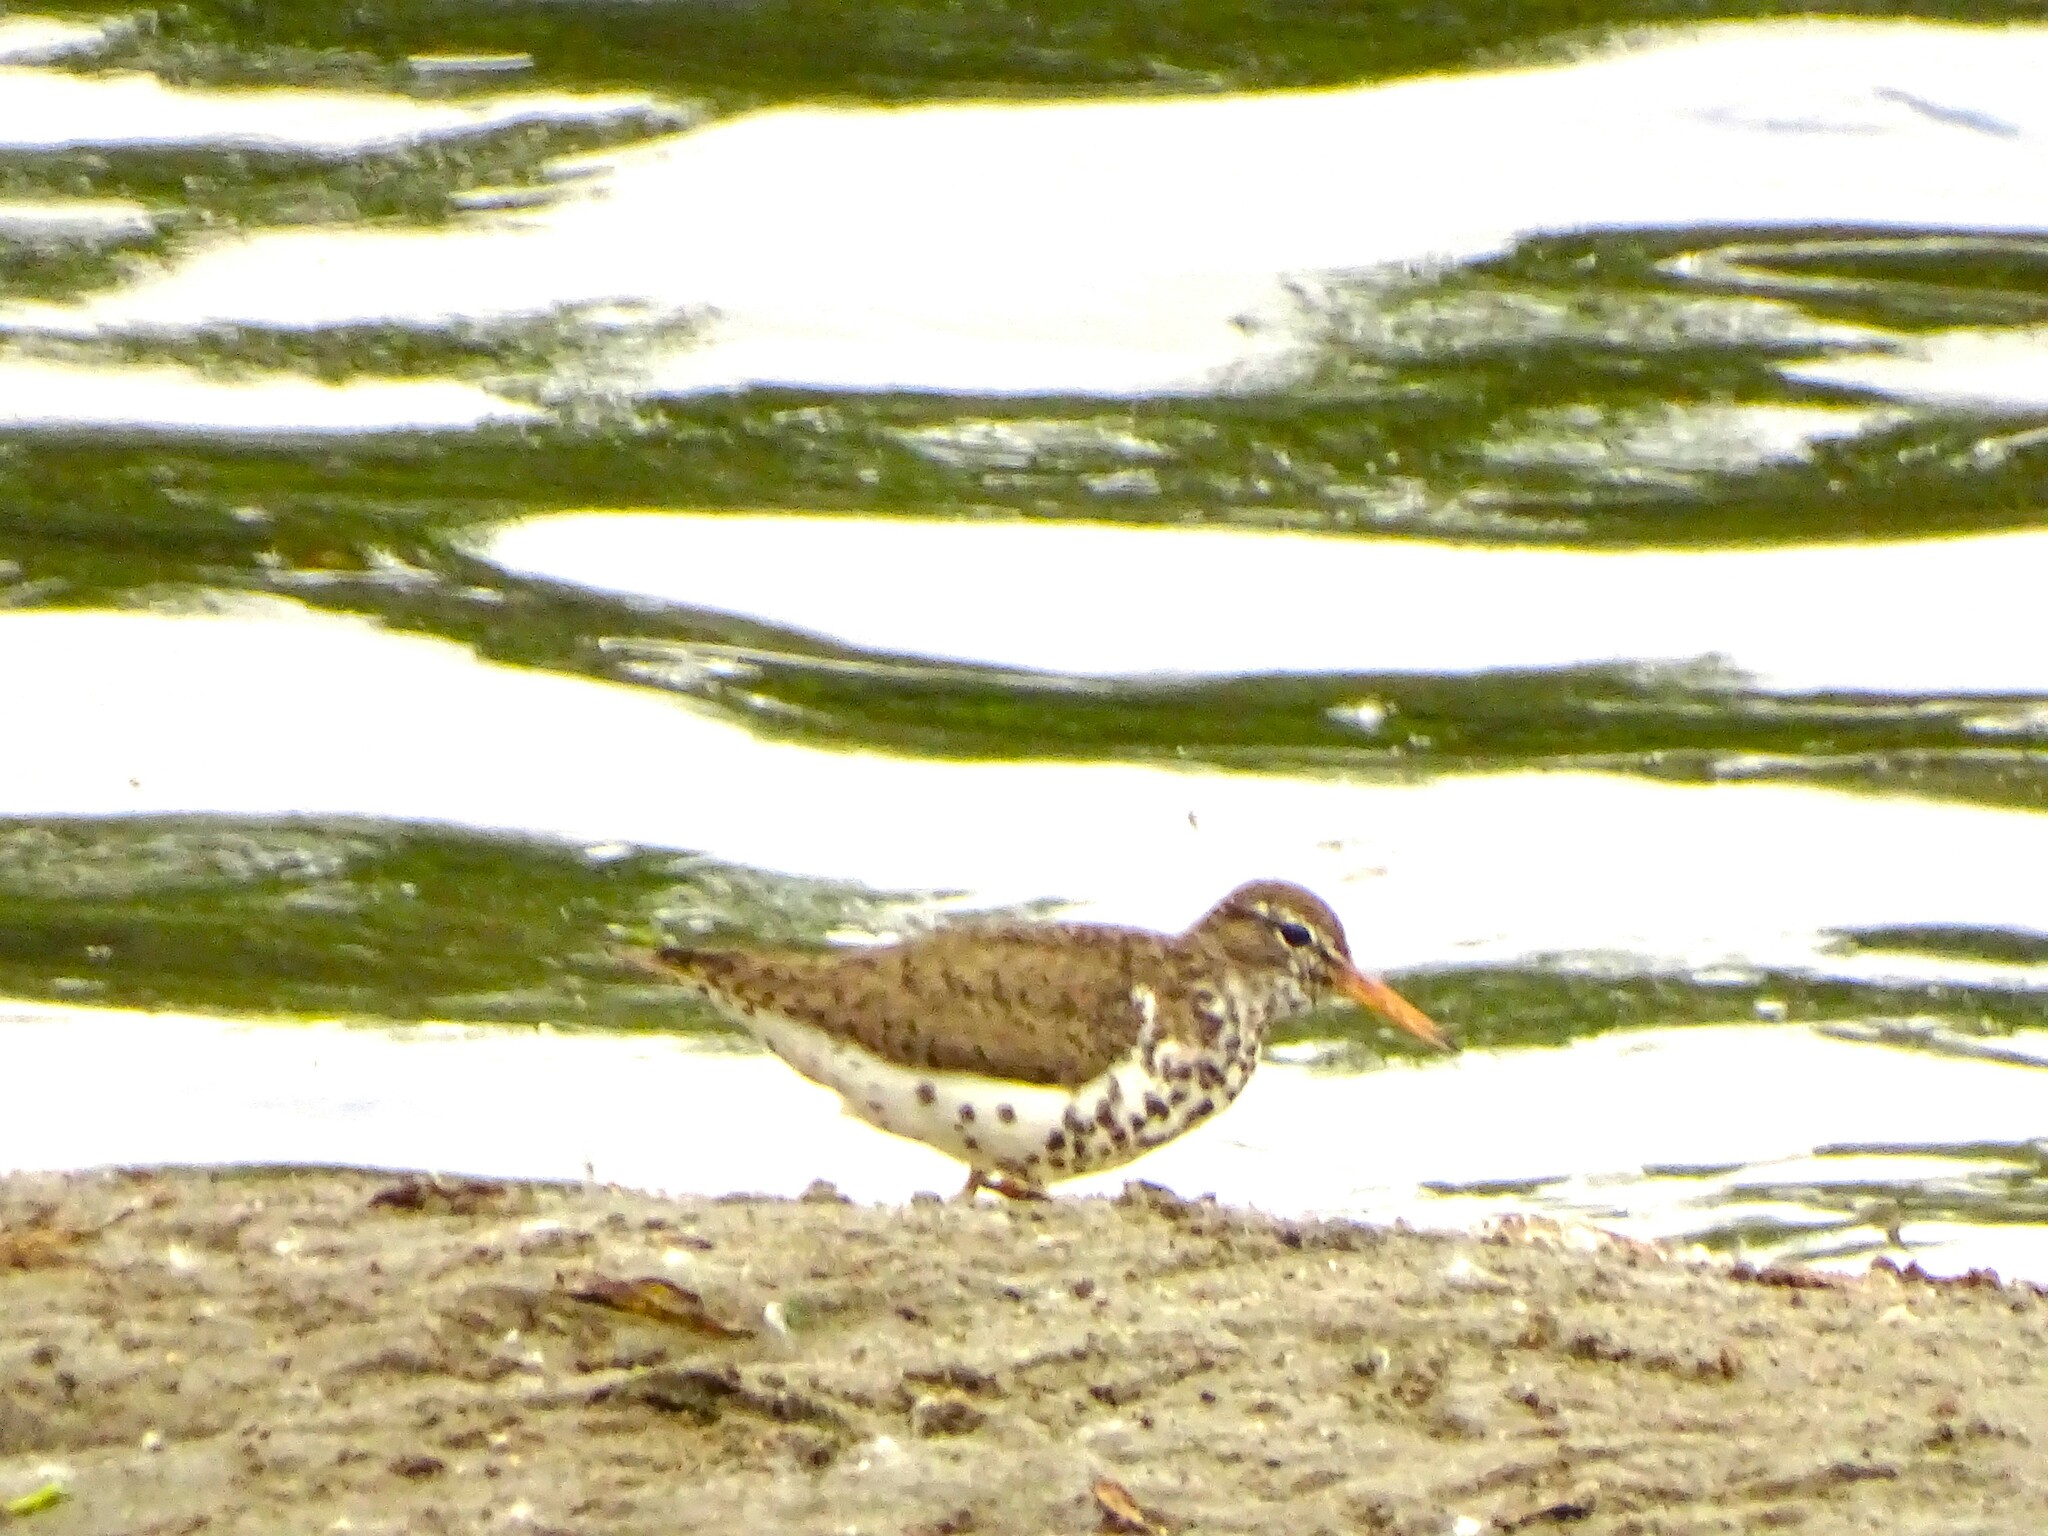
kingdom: Animalia
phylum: Chordata
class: Aves
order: Charadriiformes
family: Scolopacidae
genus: Actitis
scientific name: Actitis macularius
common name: Spotted sandpiper
